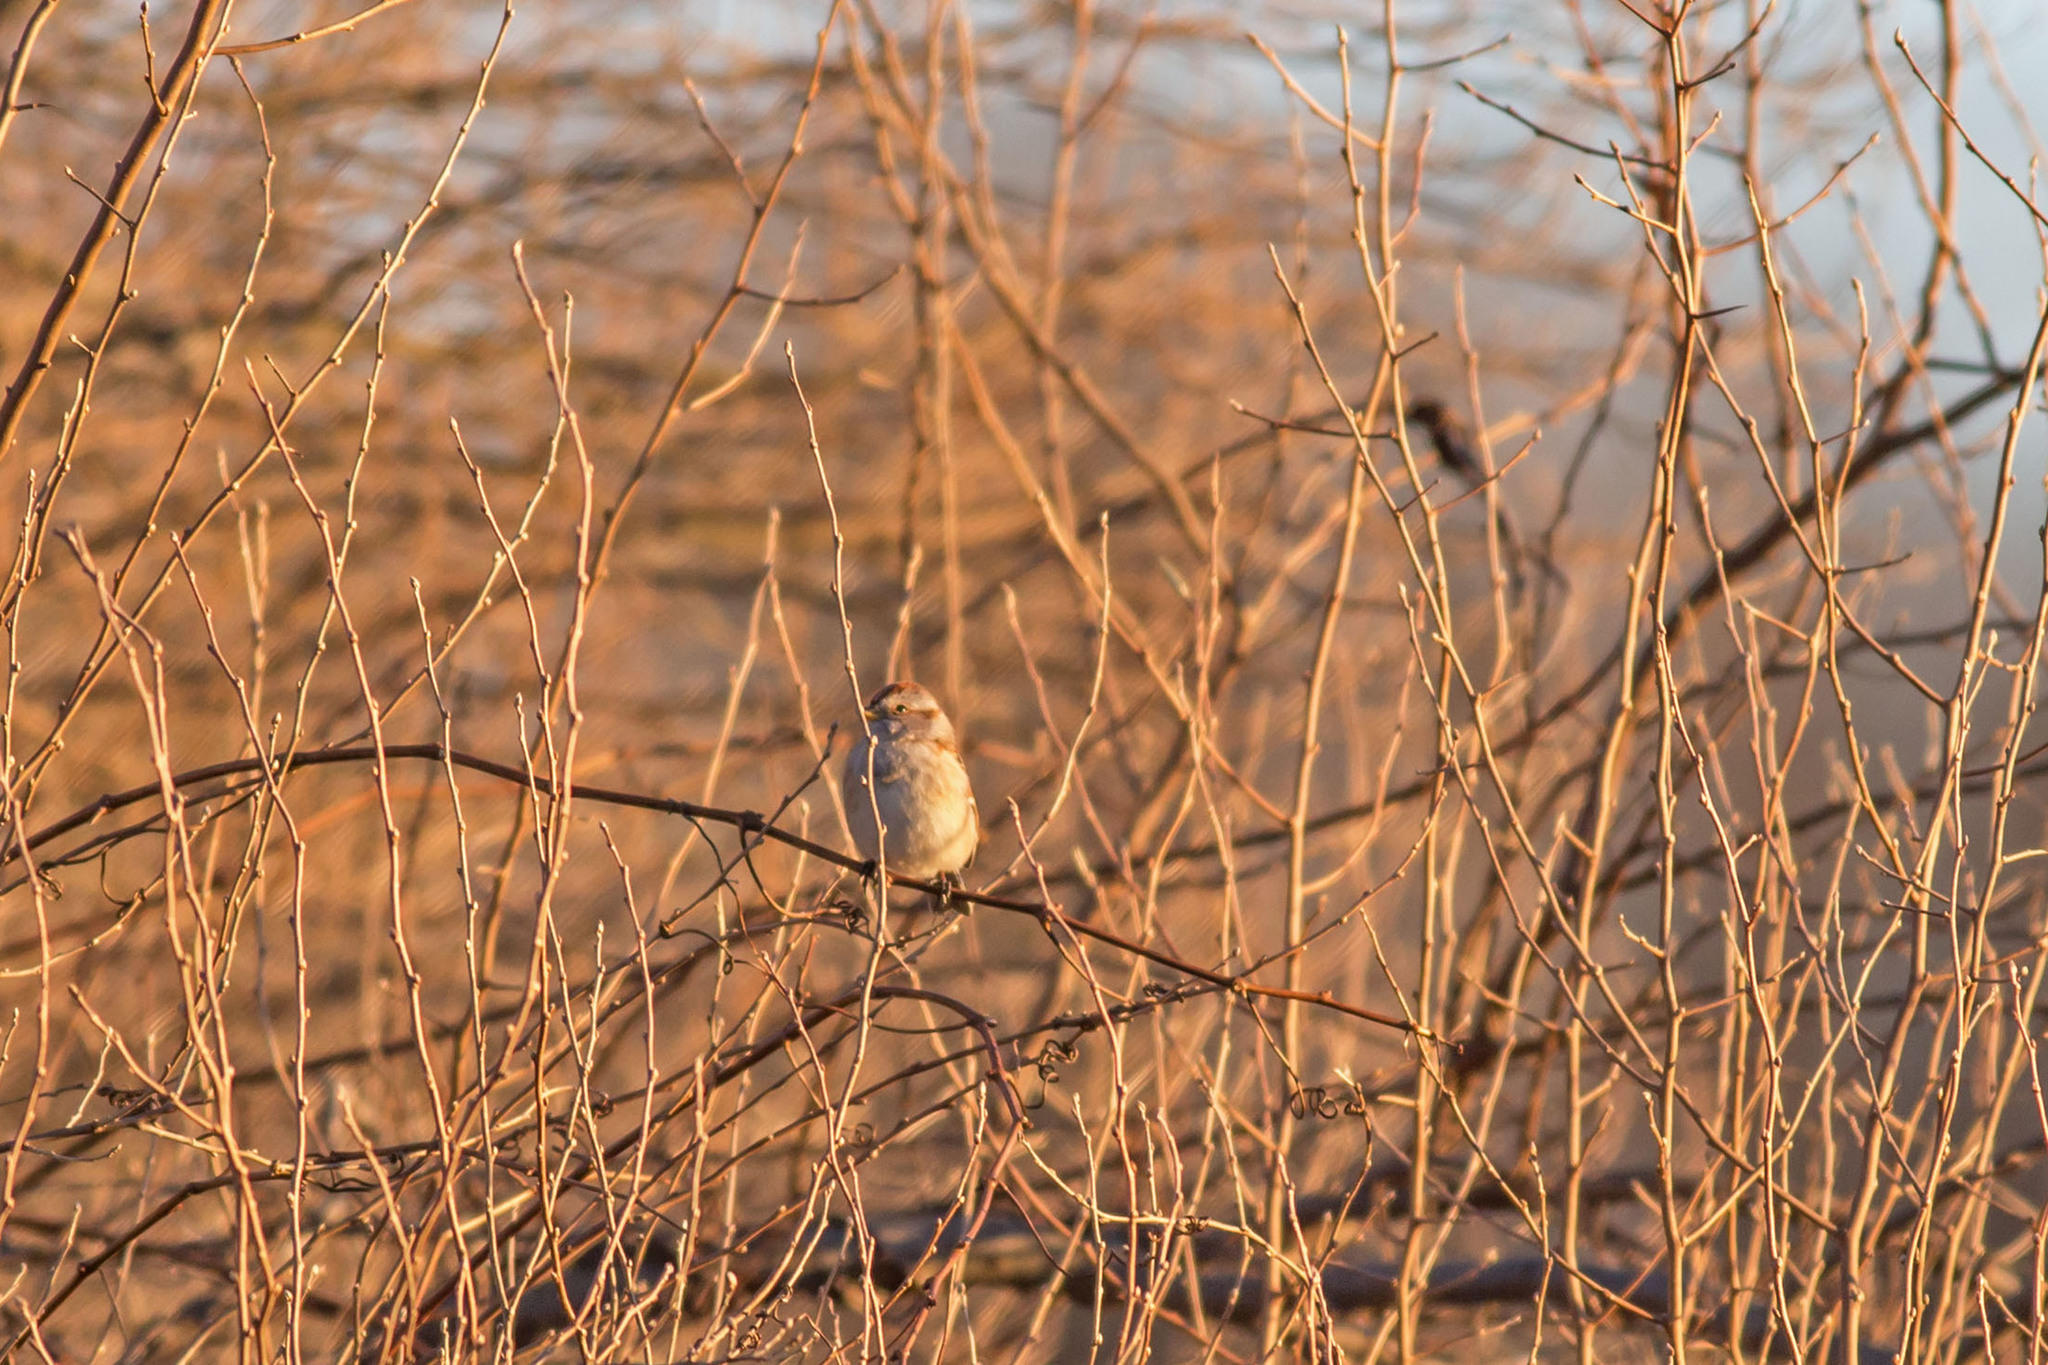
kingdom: Animalia
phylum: Chordata
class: Aves
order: Passeriformes
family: Passerellidae
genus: Spizelloides
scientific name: Spizelloides arborea
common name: American tree sparrow
